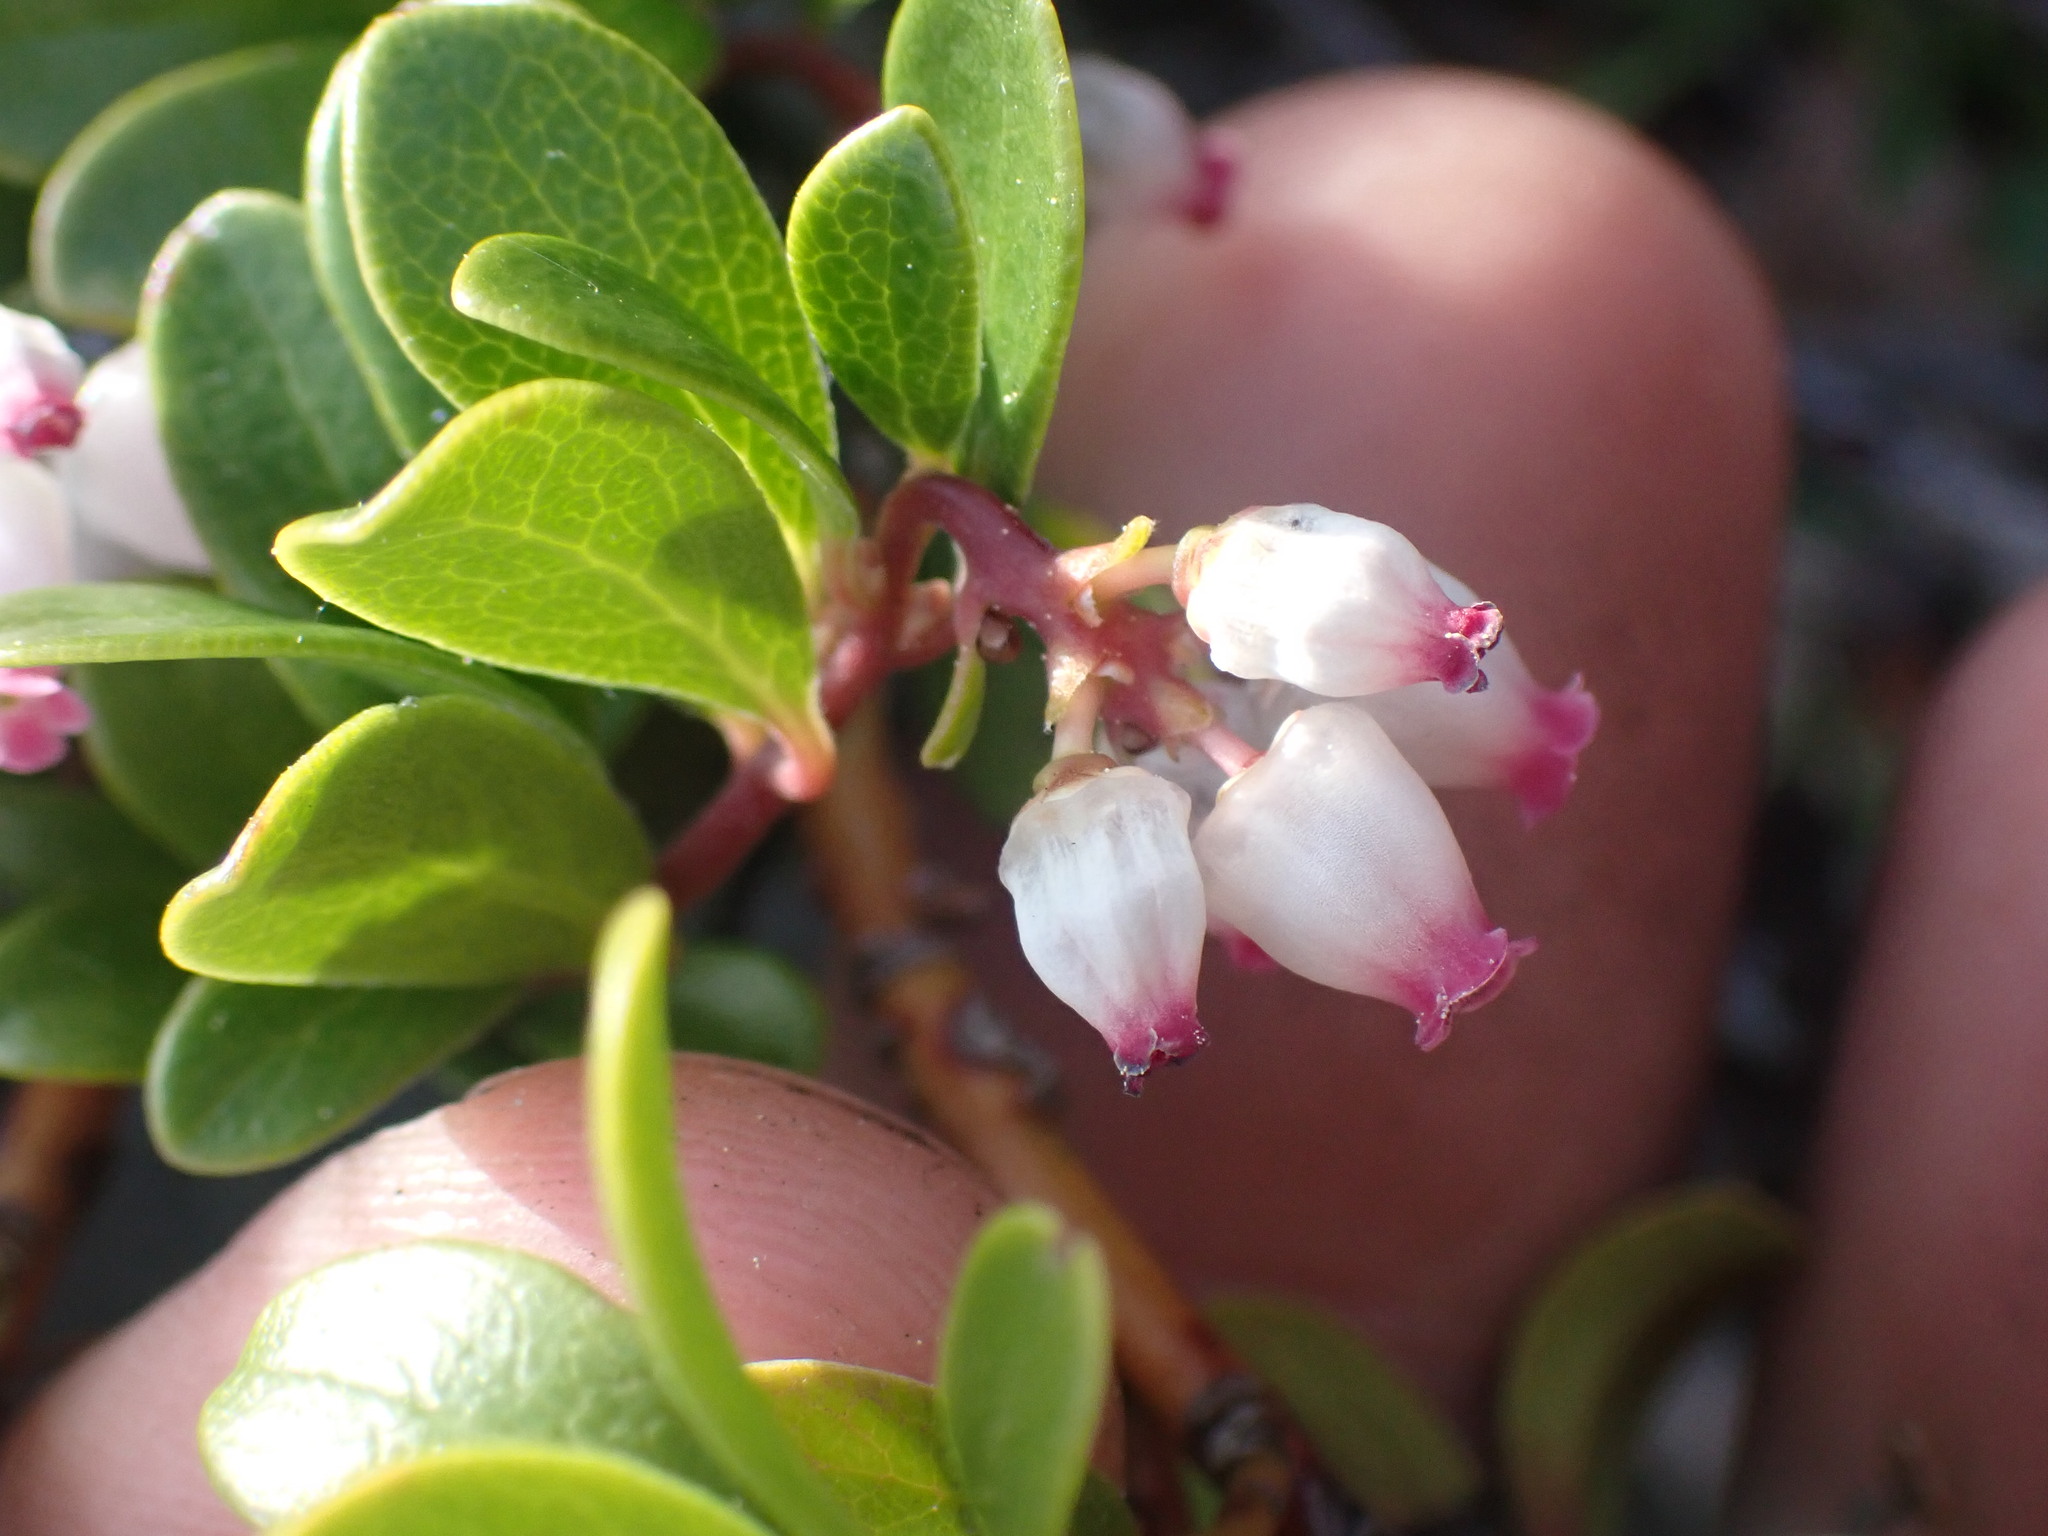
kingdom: Plantae
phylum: Tracheophyta
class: Magnoliopsida
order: Ericales
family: Ericaceae
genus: Arctostaphylos
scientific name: Arctostaphylos uva-ursi
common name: Bearberry
